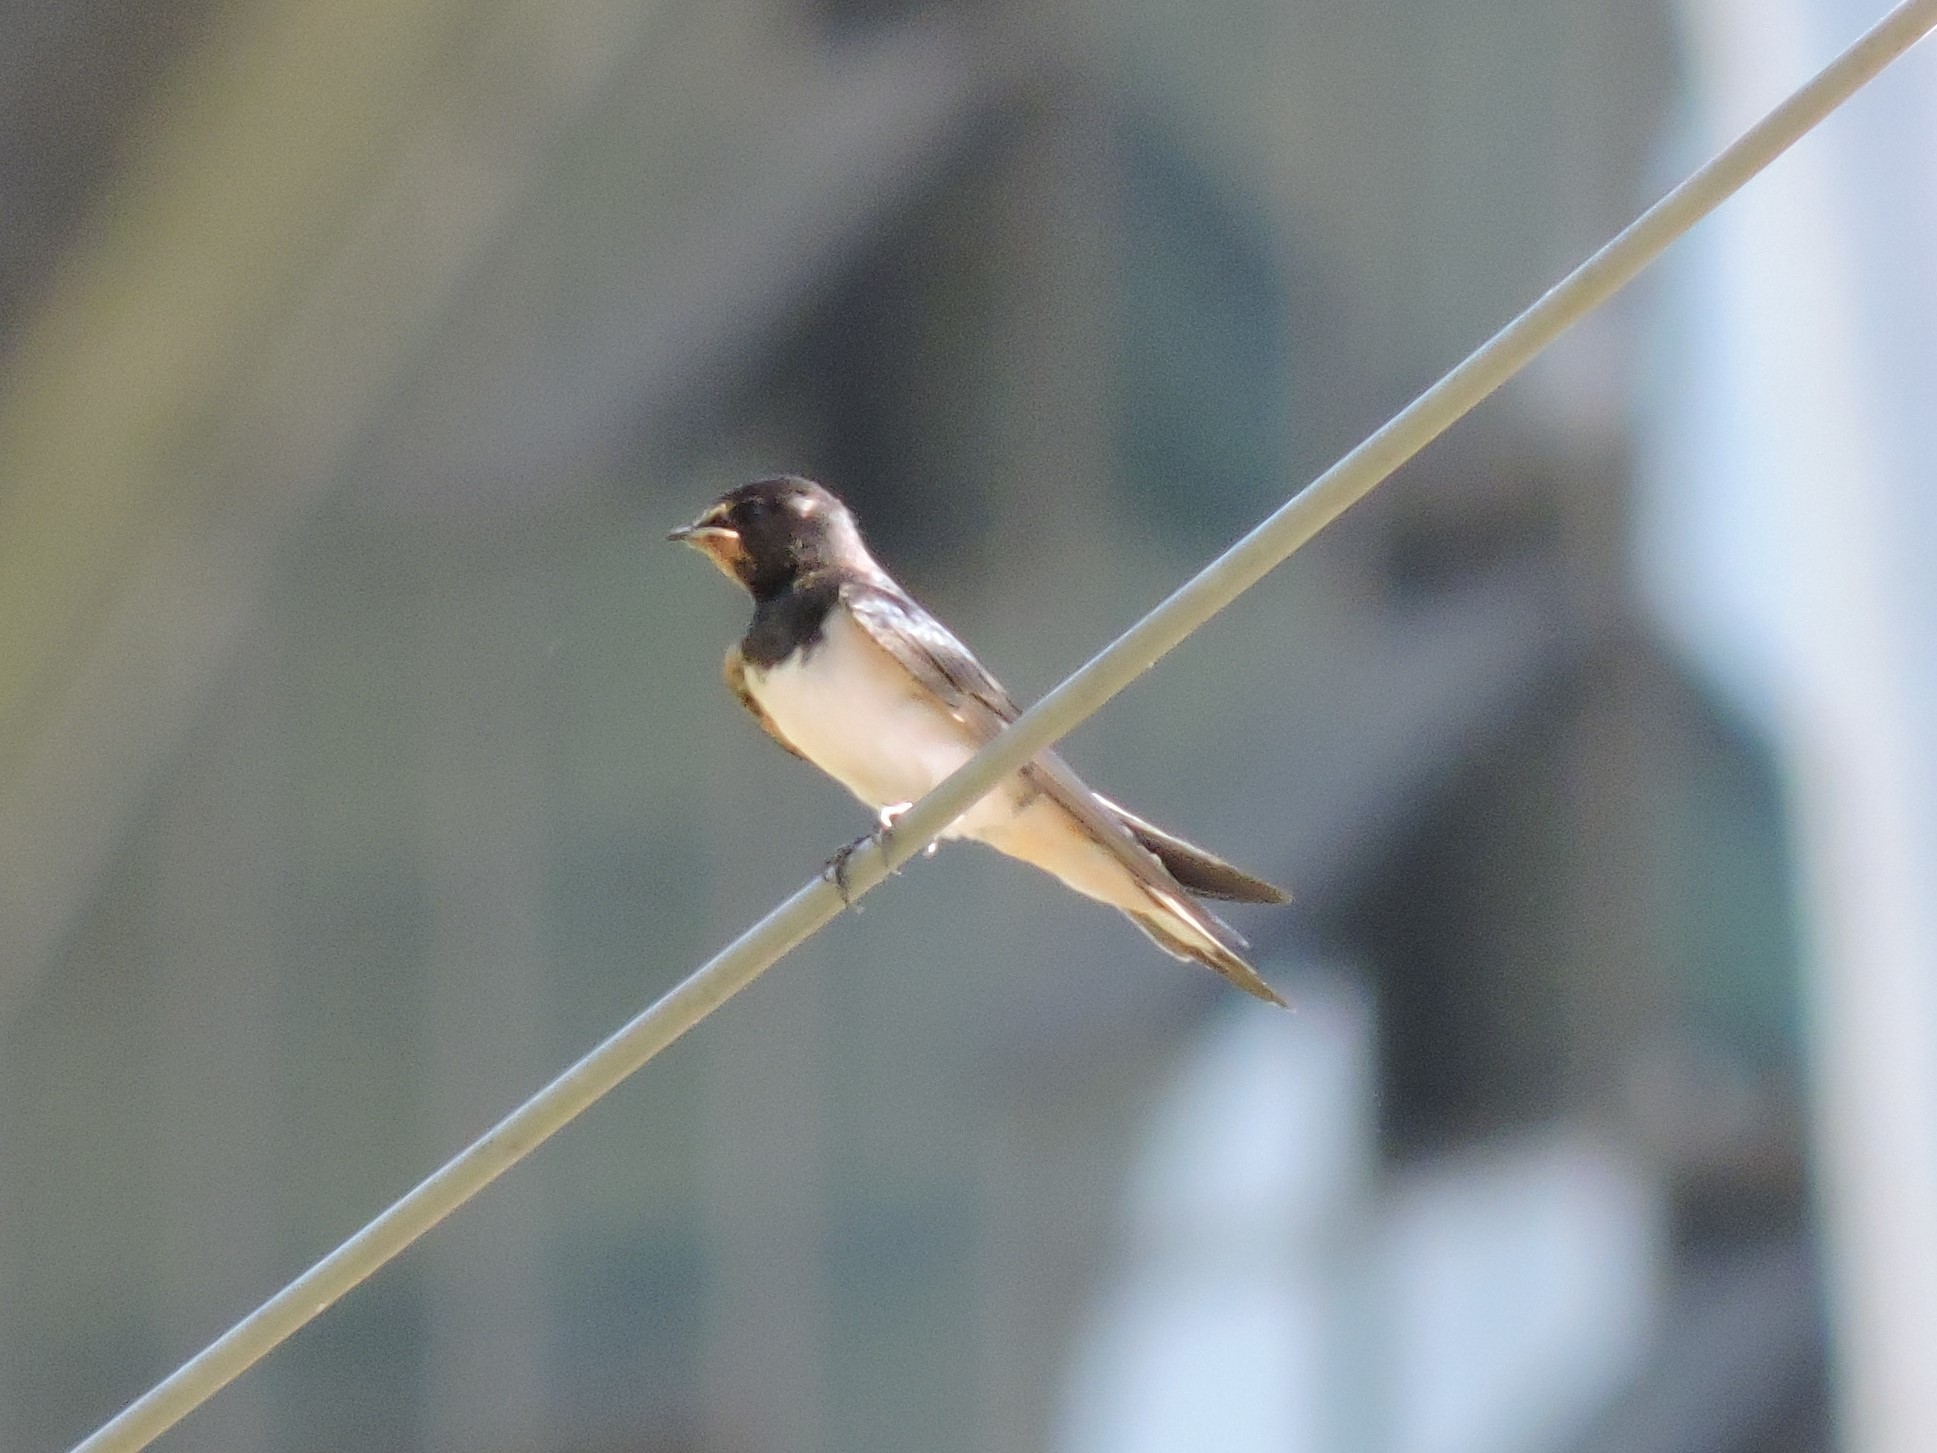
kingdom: Animalia
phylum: Chordata
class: Aves
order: Passeriformes
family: Hirundinidae
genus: Hirundo
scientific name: Hirundo rustica
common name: Barn swallow
